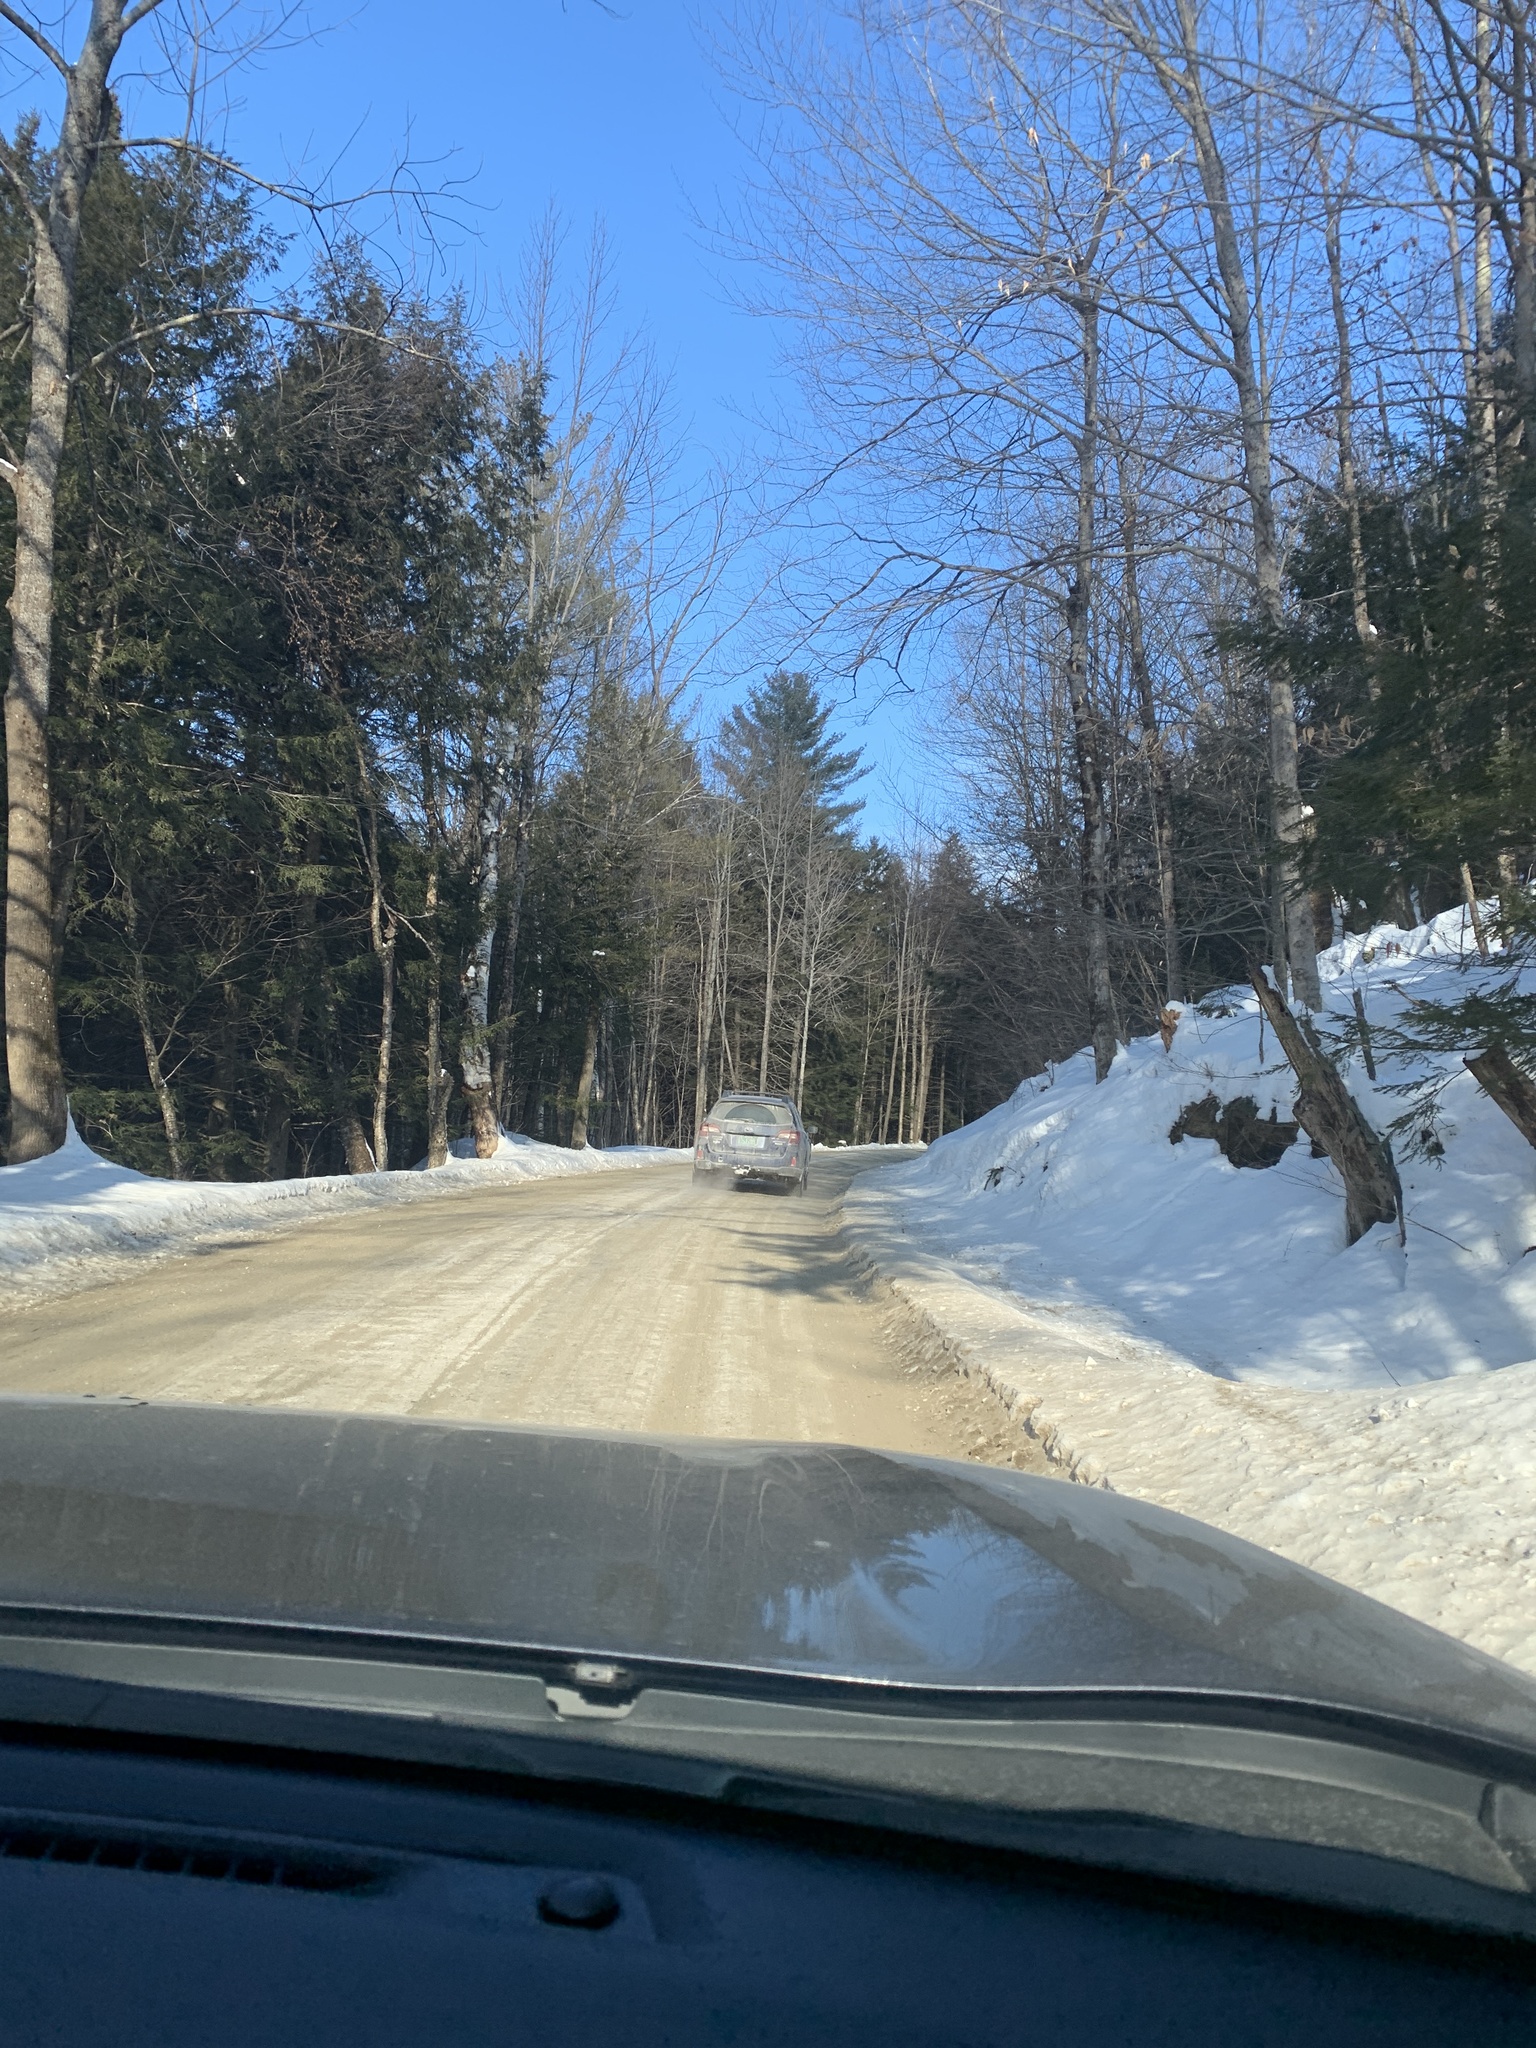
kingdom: Plantae
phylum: Tracheophyta
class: Pinopsida
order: Pinales
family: Pinaceae
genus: Pinus
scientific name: Pinus strobus
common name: Weymouth pine
